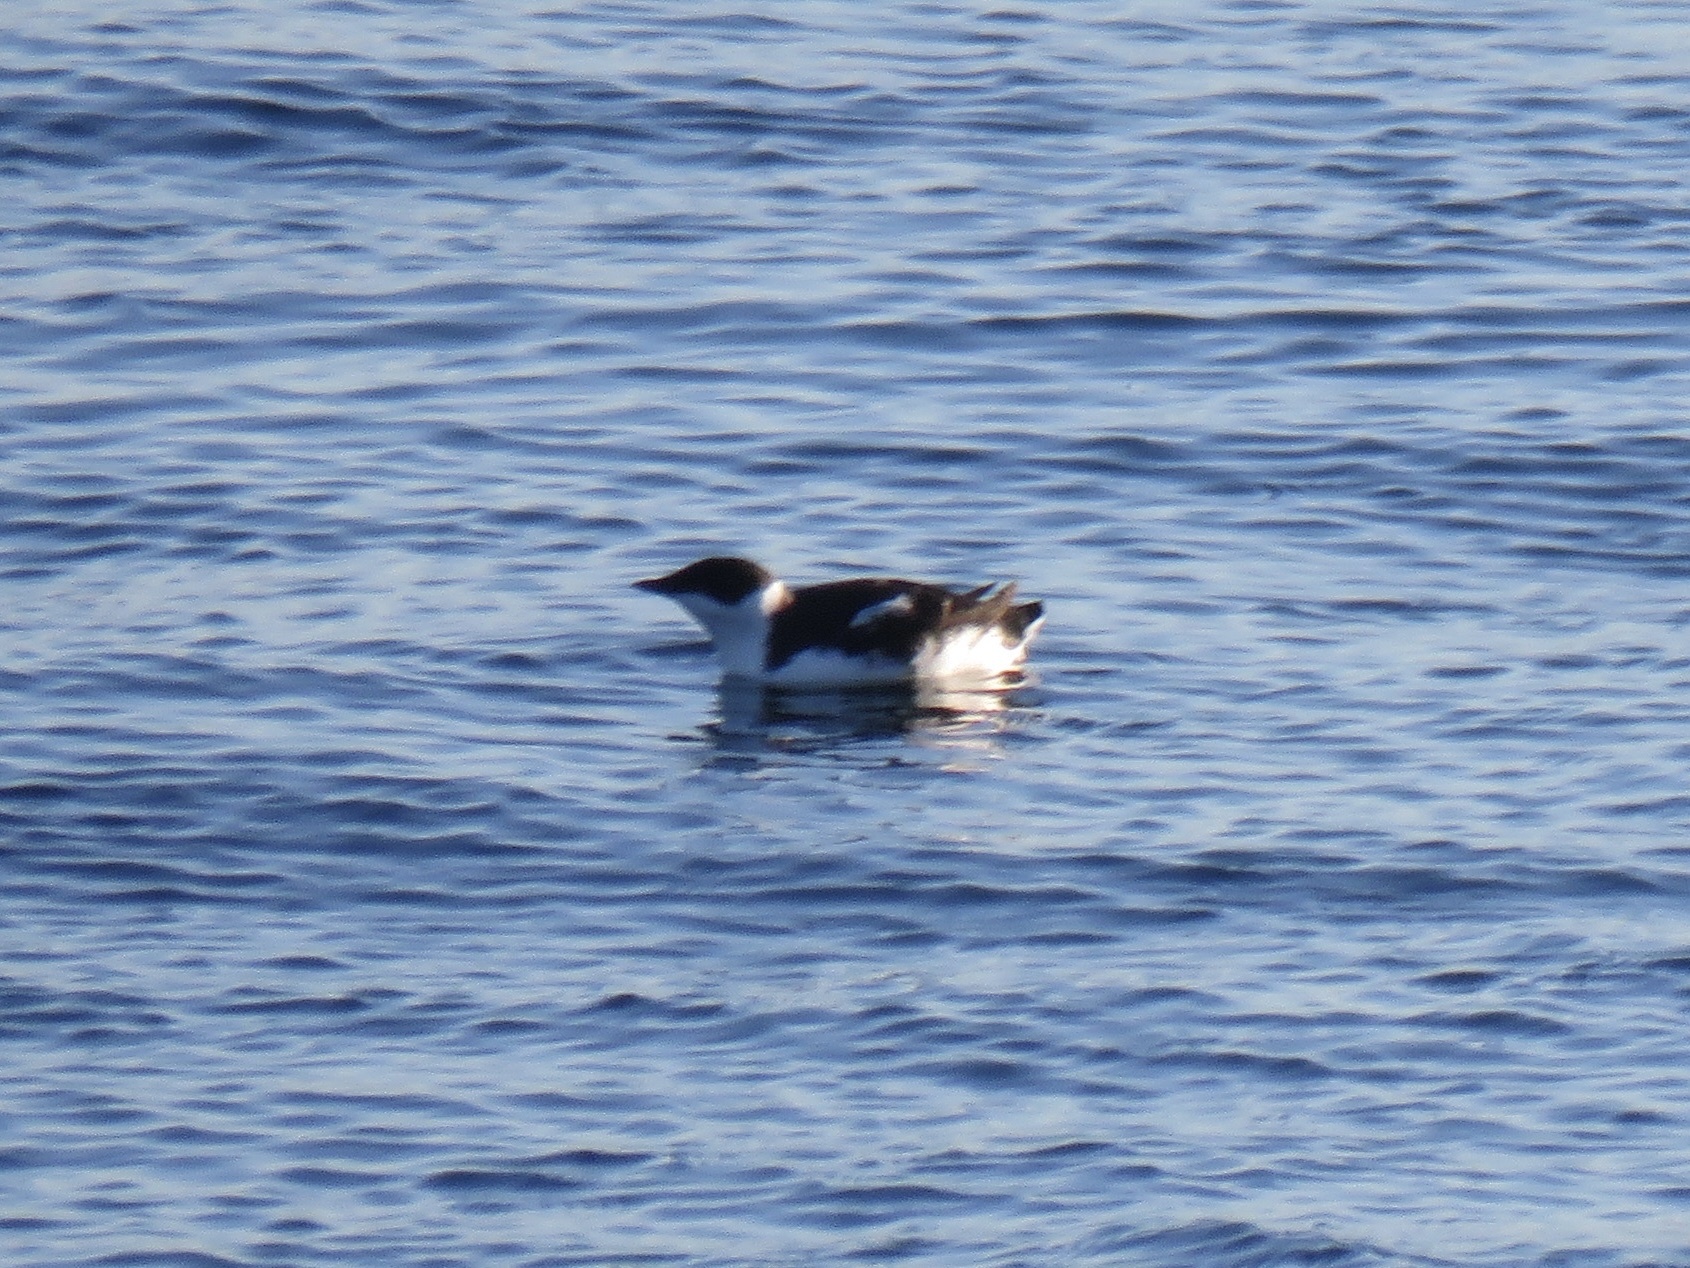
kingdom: Animalia
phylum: Chordata
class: Aves
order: Charadriiformes
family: Alcidae
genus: Brachyramphus
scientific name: Brachyramphus marmoratus
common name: Marbled murrelet
